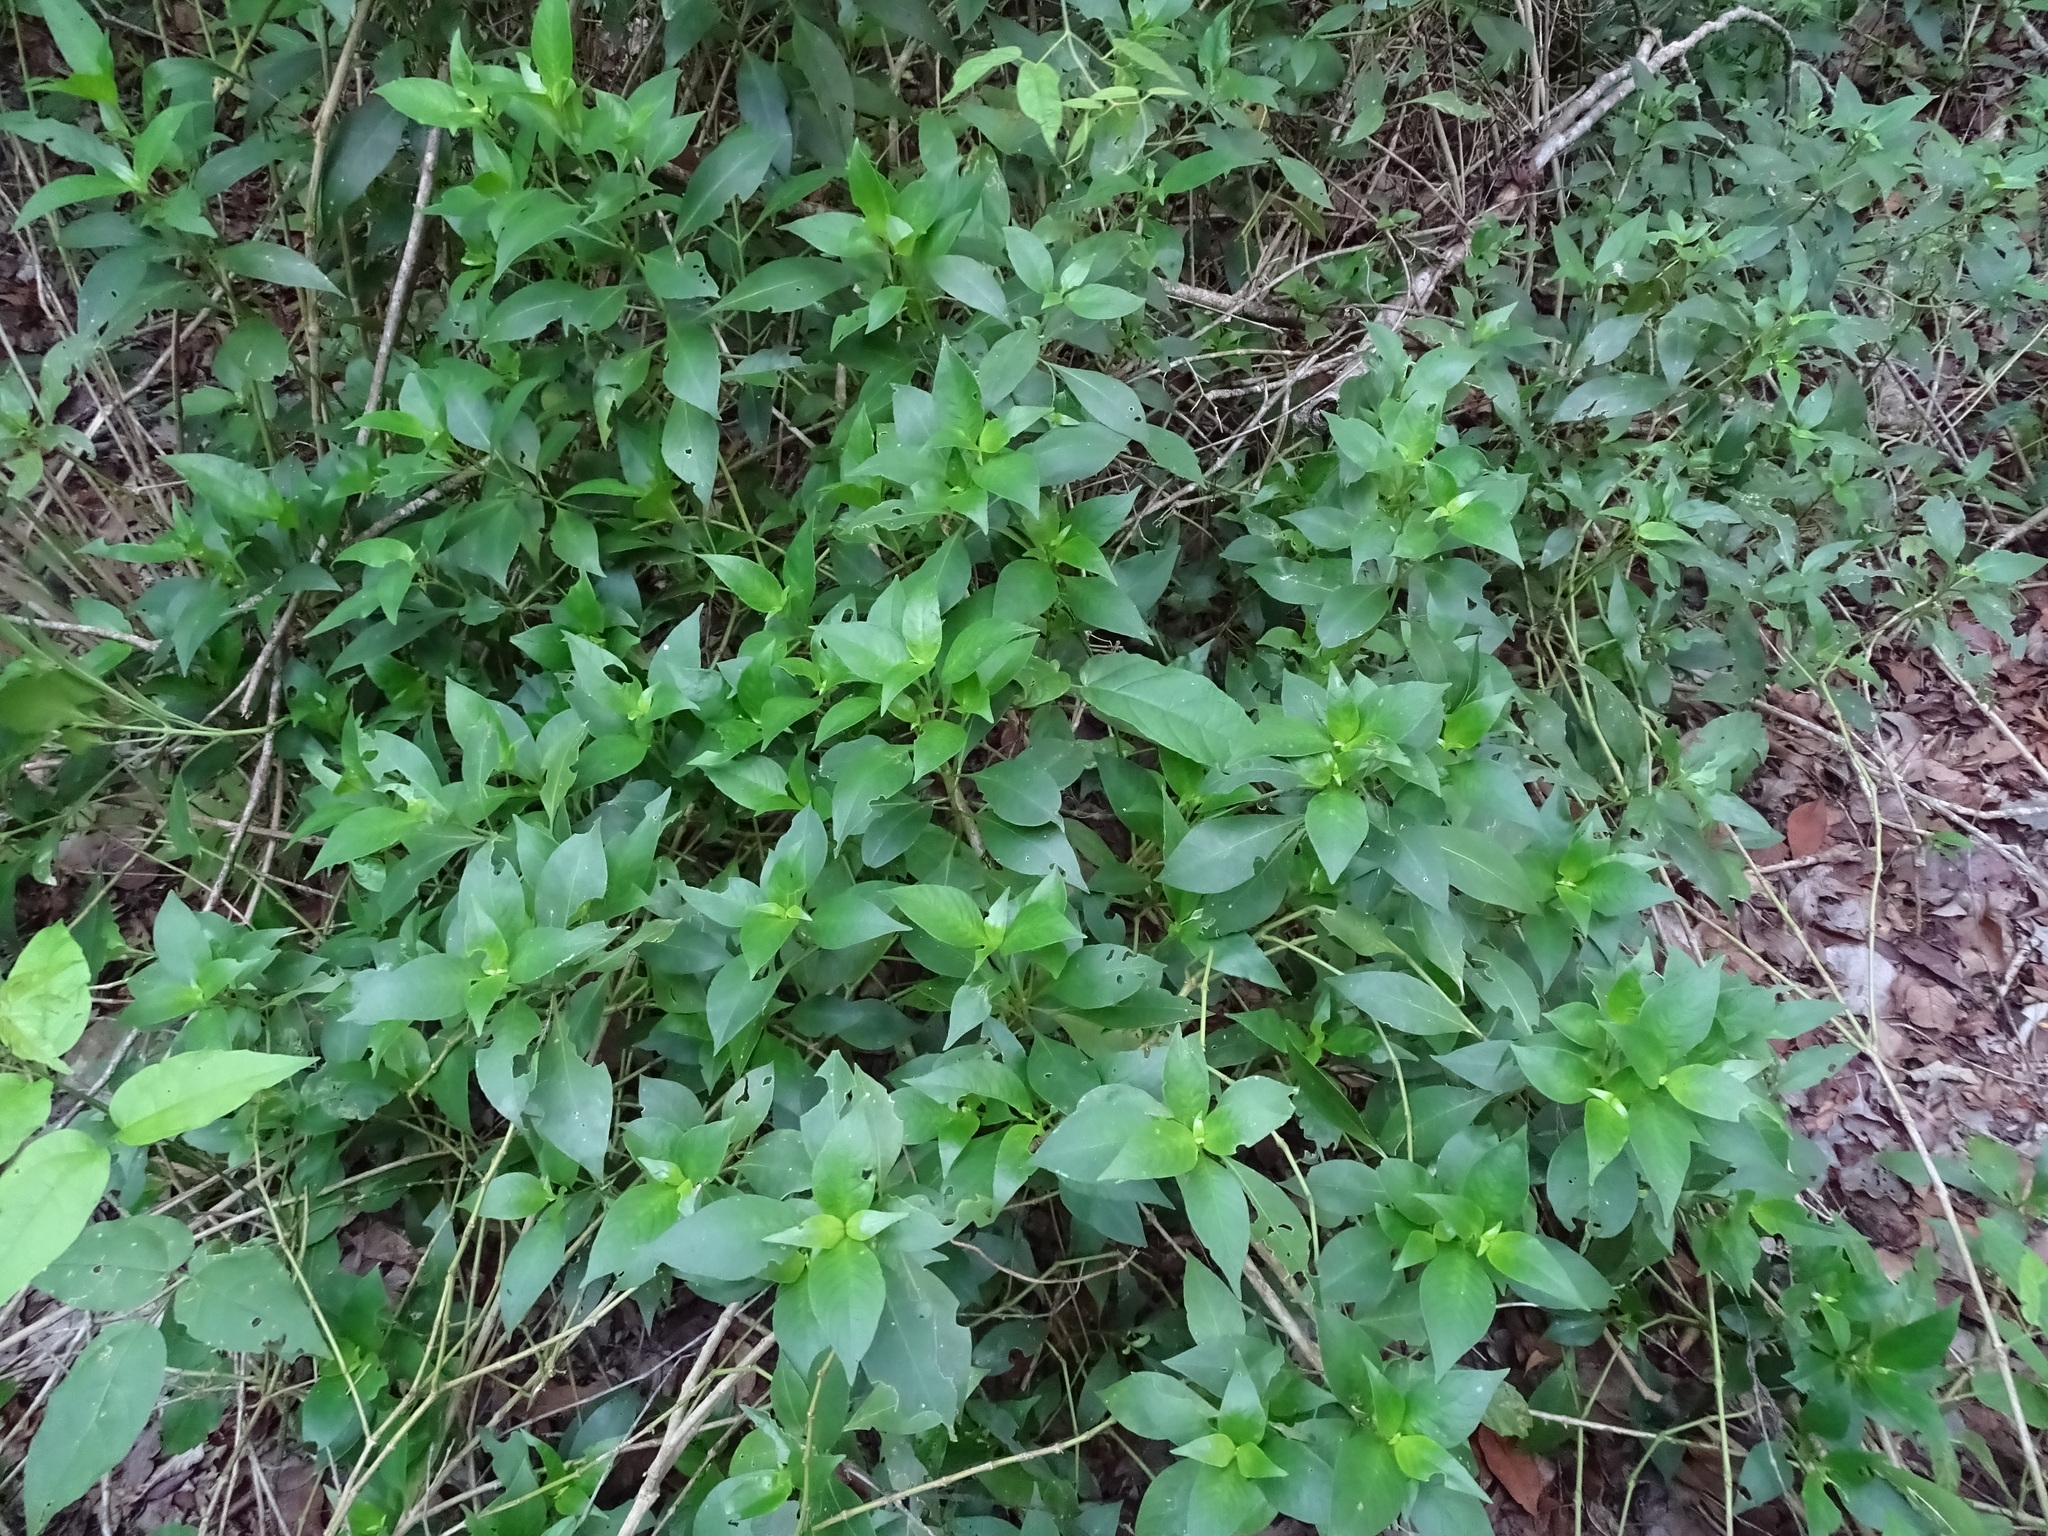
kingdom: Plantae
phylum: Tracheophyta
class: Magnoliopsida
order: Lamiales
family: Acanthaceae
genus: Justicia
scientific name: Justicia campechiana
